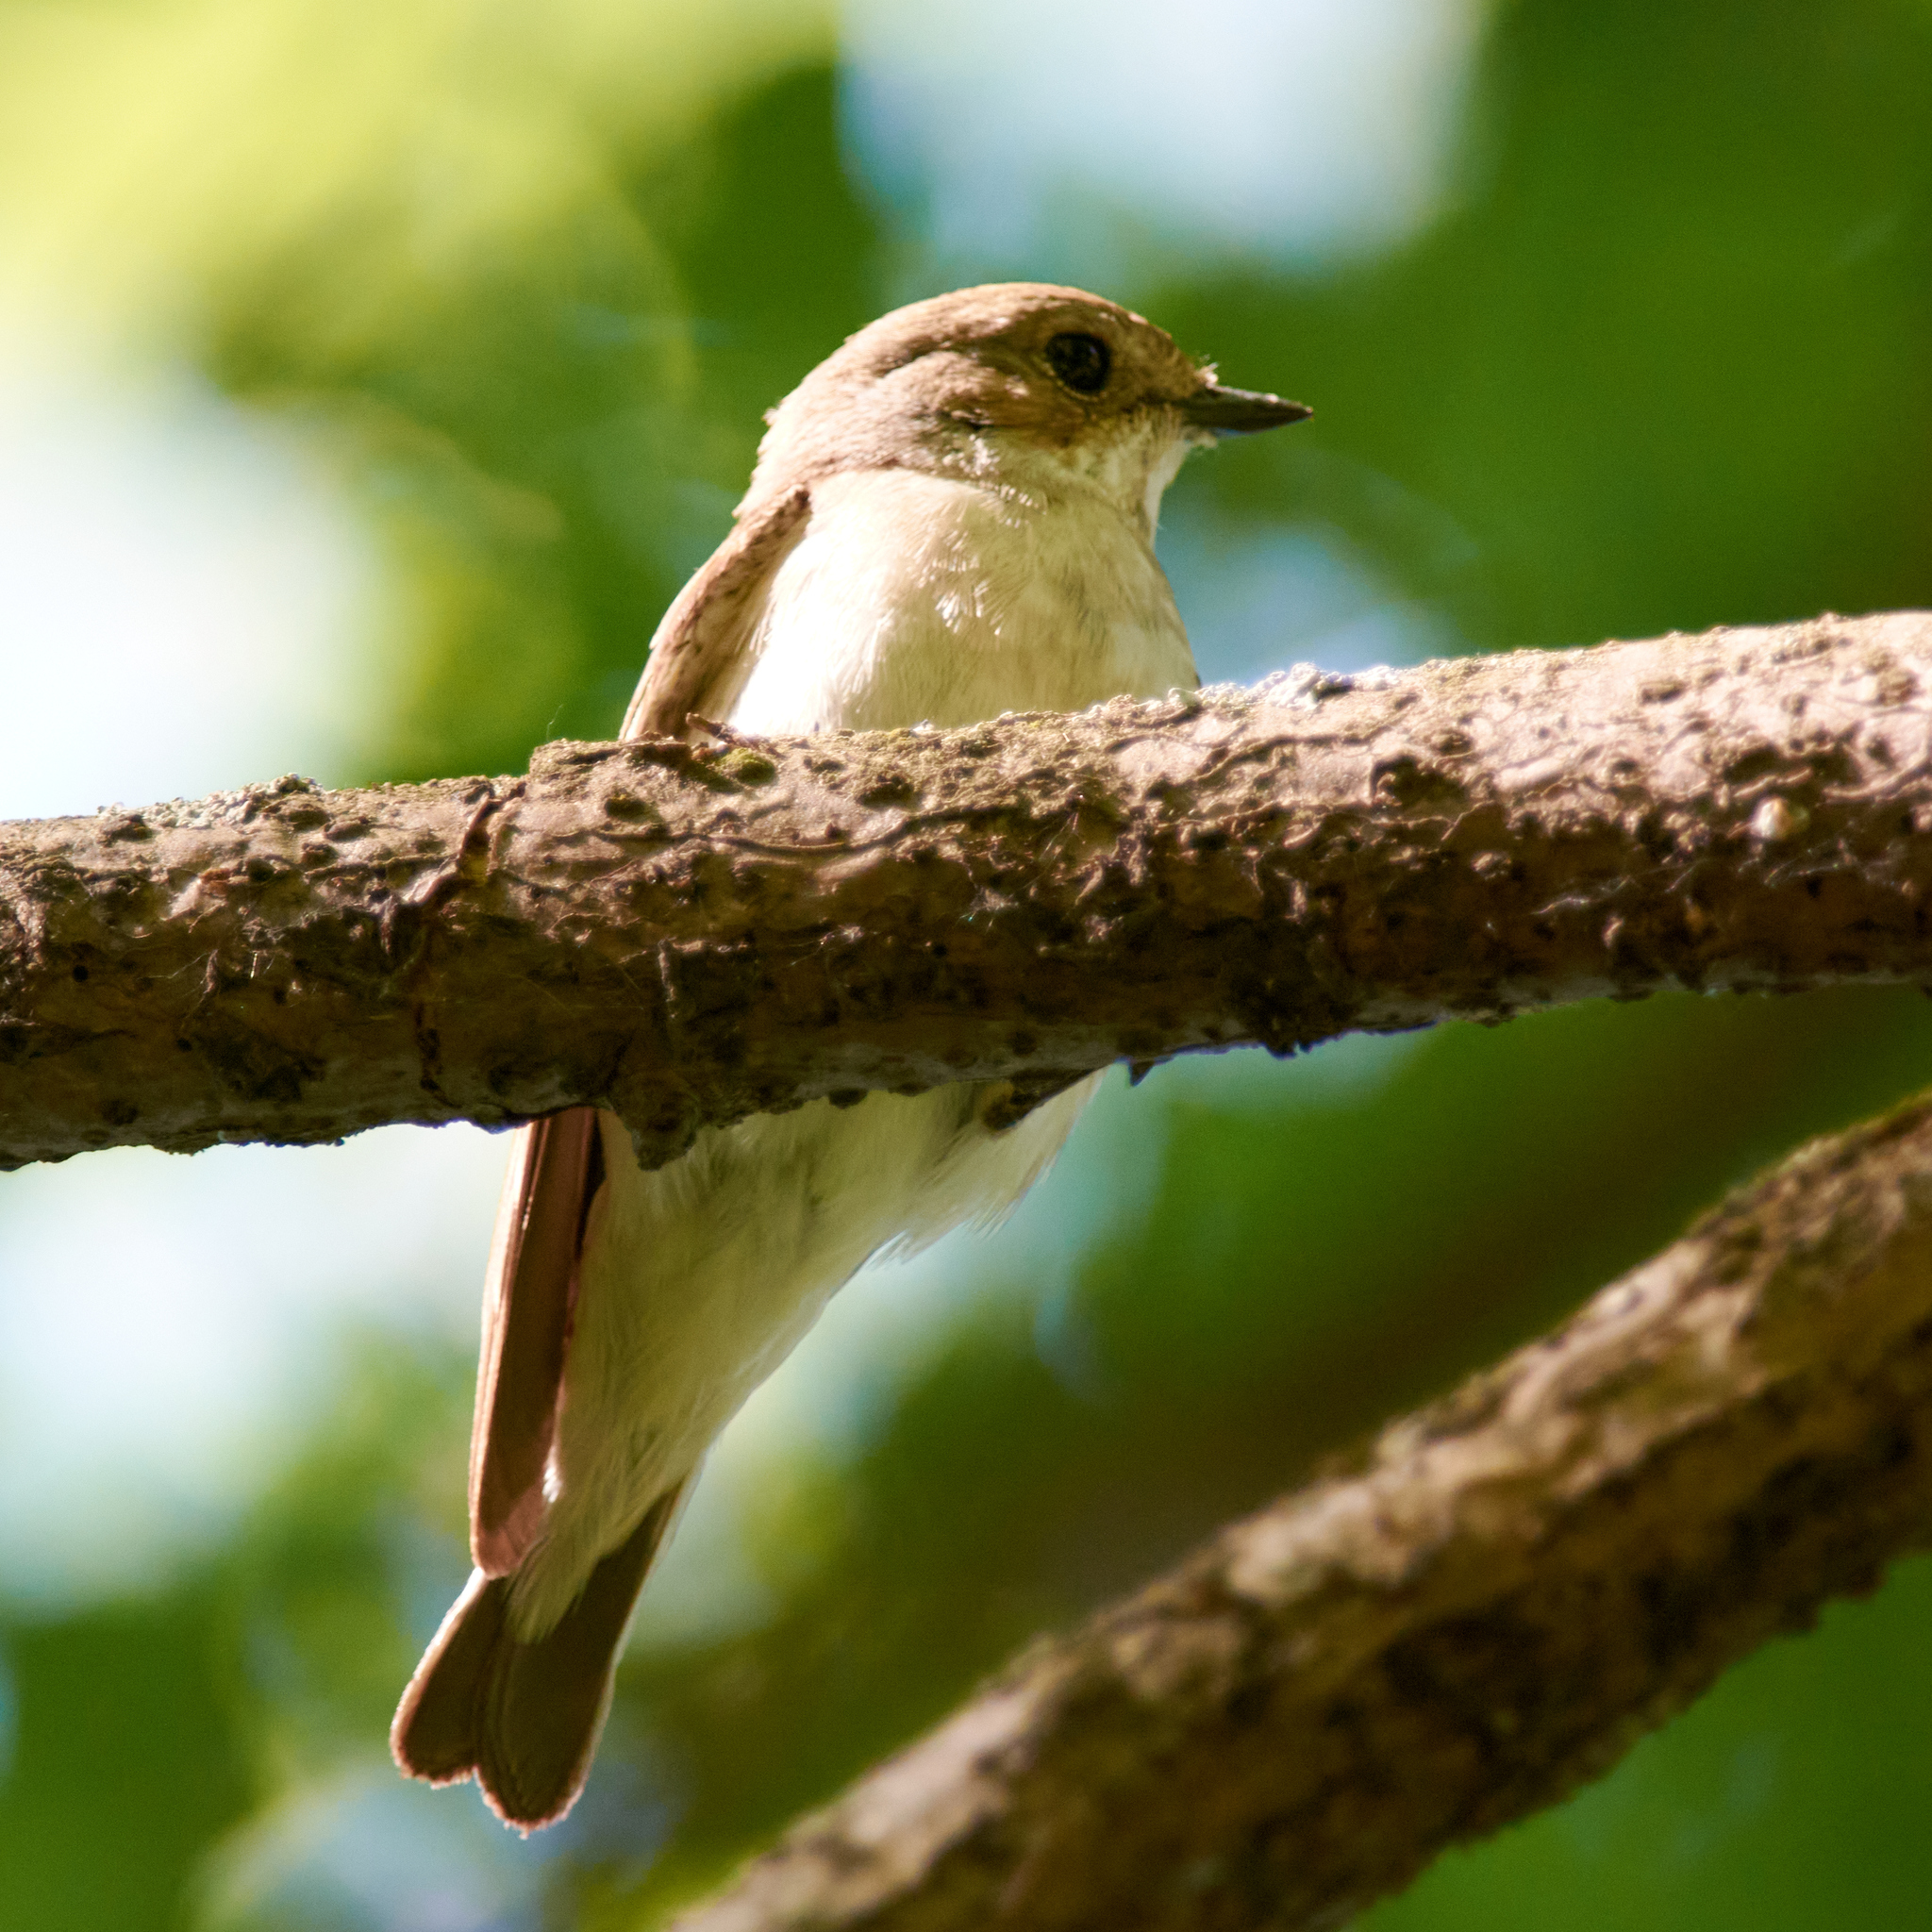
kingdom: Animalia
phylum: Chordata
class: Aves
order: Passeriformes
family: Muscicapidae
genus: Ficedula
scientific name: Ficedula hypoleuca
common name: European pied flycatcher
